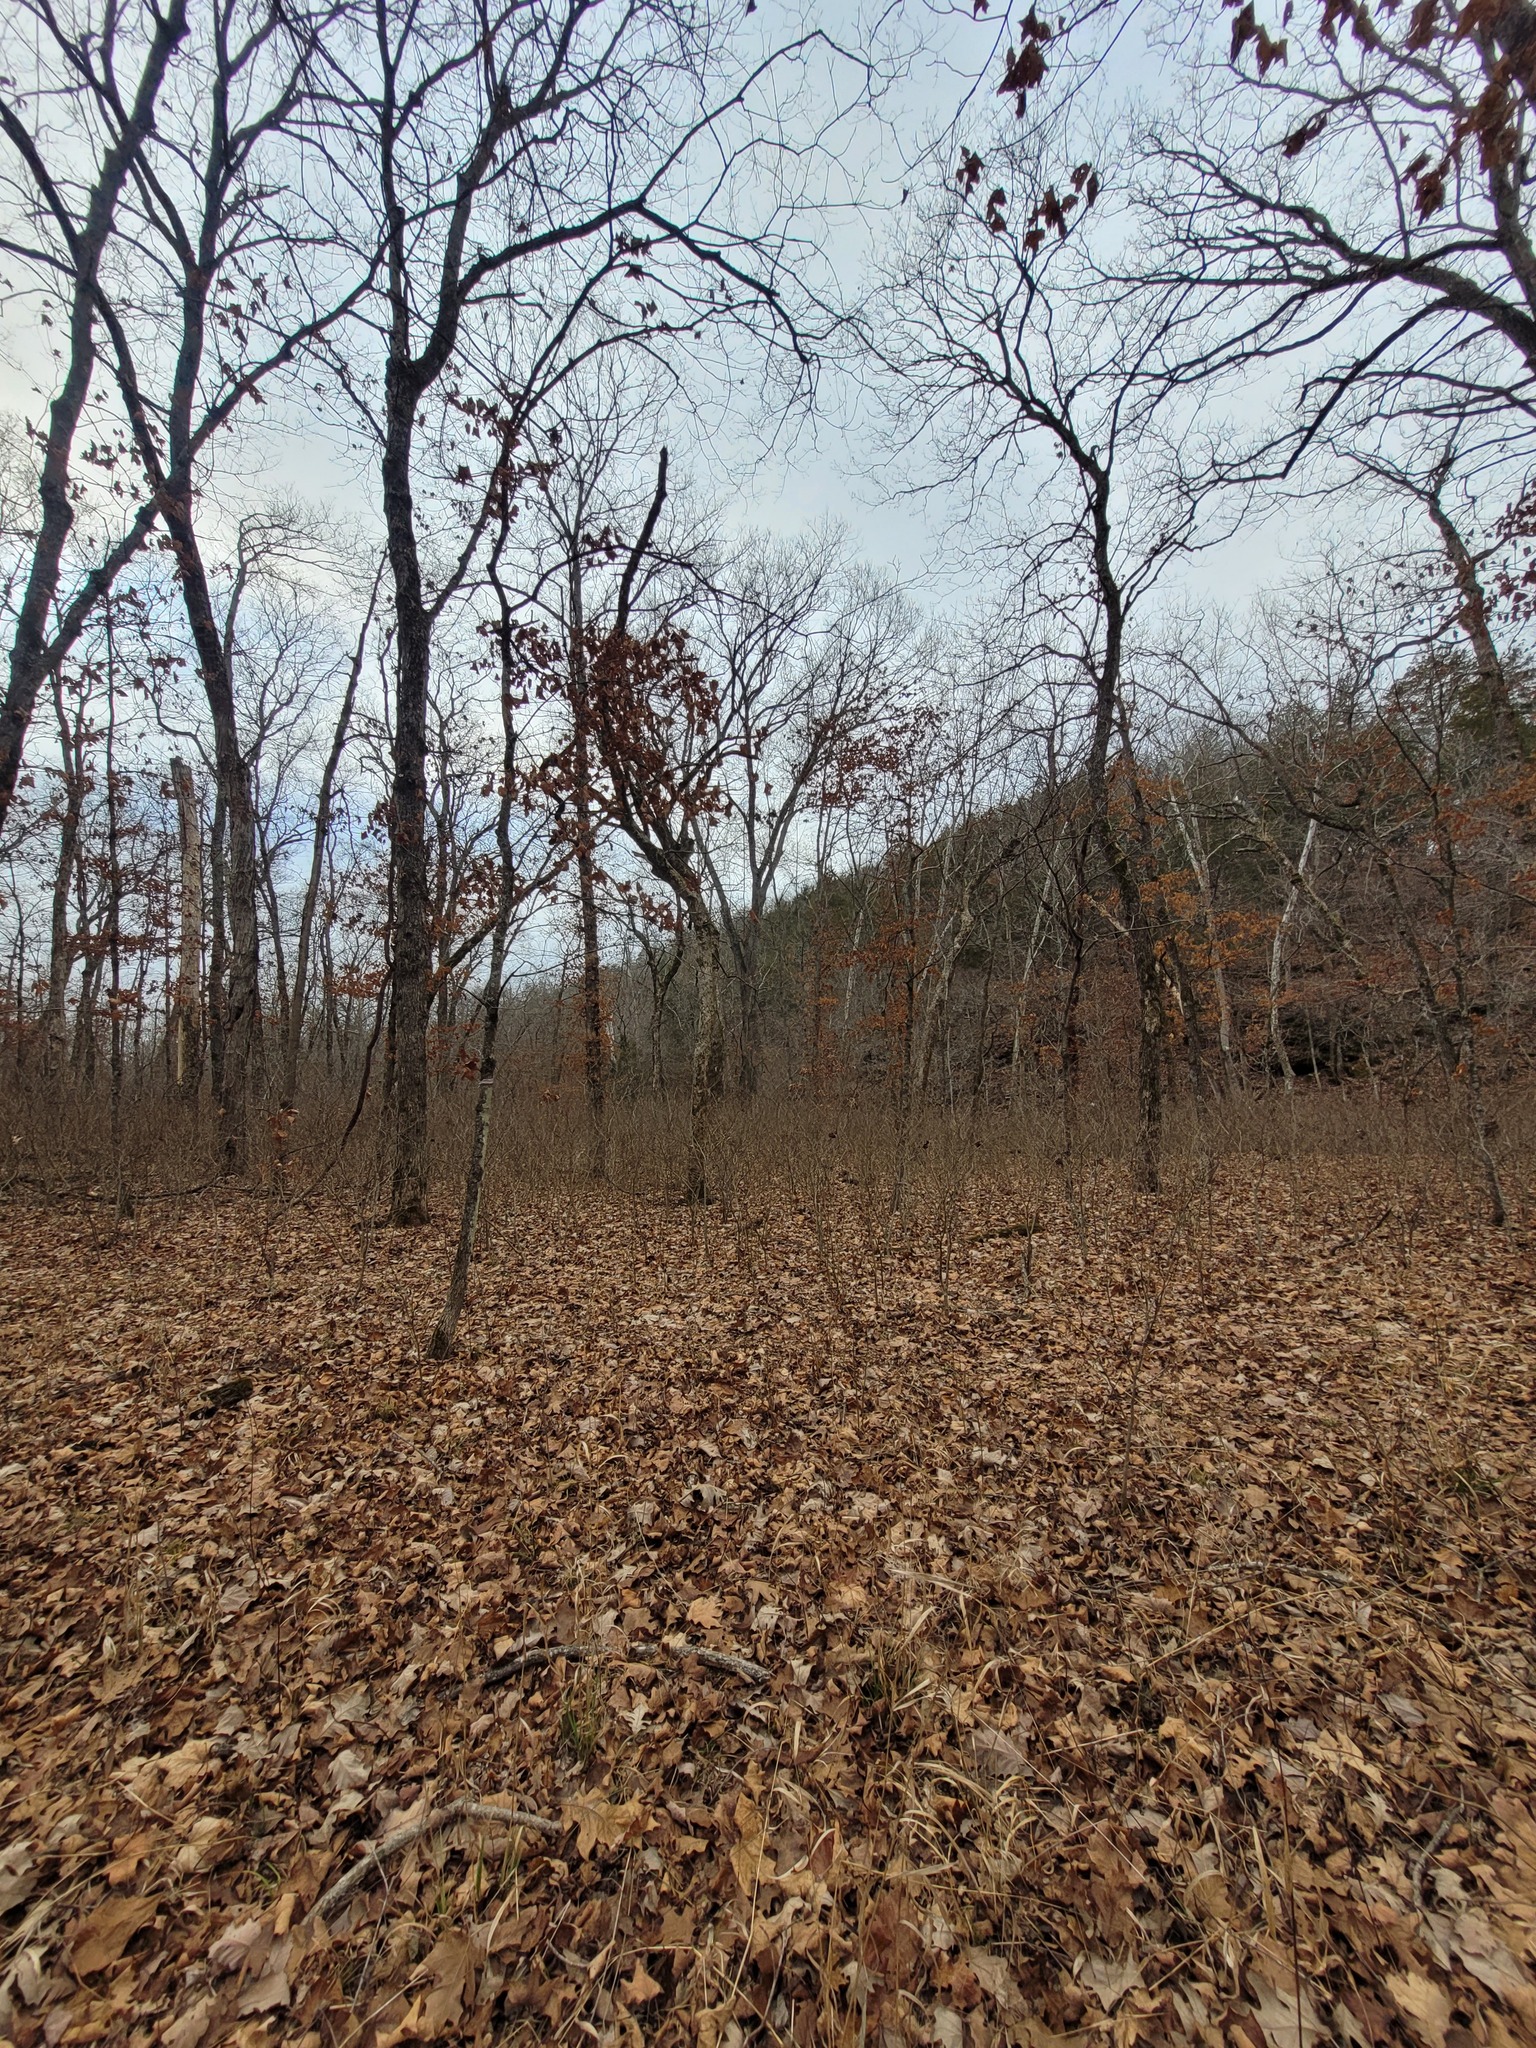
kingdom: Plantae
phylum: Tracheophyta
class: Magnoliopsida
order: Malvales
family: Thymelaeaceae
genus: Dirca
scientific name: Dirca palustris
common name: Leatherwood
